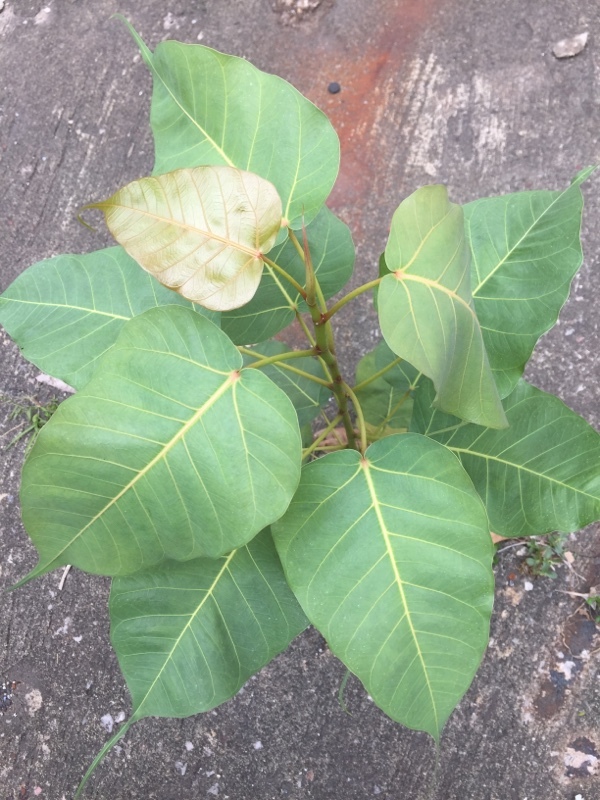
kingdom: Plantae
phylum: Tracheophyta
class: Magnoliopsida
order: Rosales
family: Moraceae
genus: Ficus
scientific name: Ficus religiosa
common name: Bodhi tree
